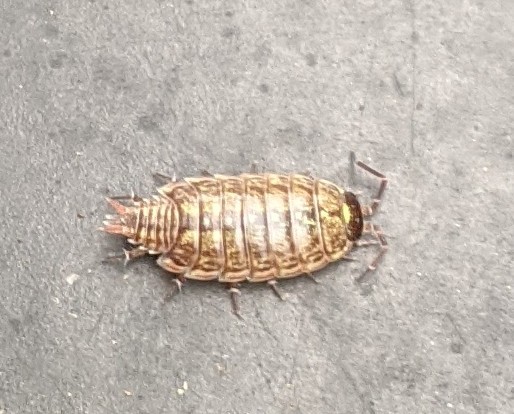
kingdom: Animalia
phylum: Arthropoda
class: Malacostraca
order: Isopoda
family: Philosciidae
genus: Philoscia
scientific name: Philoscia muscorum
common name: Common striped woodlouse
